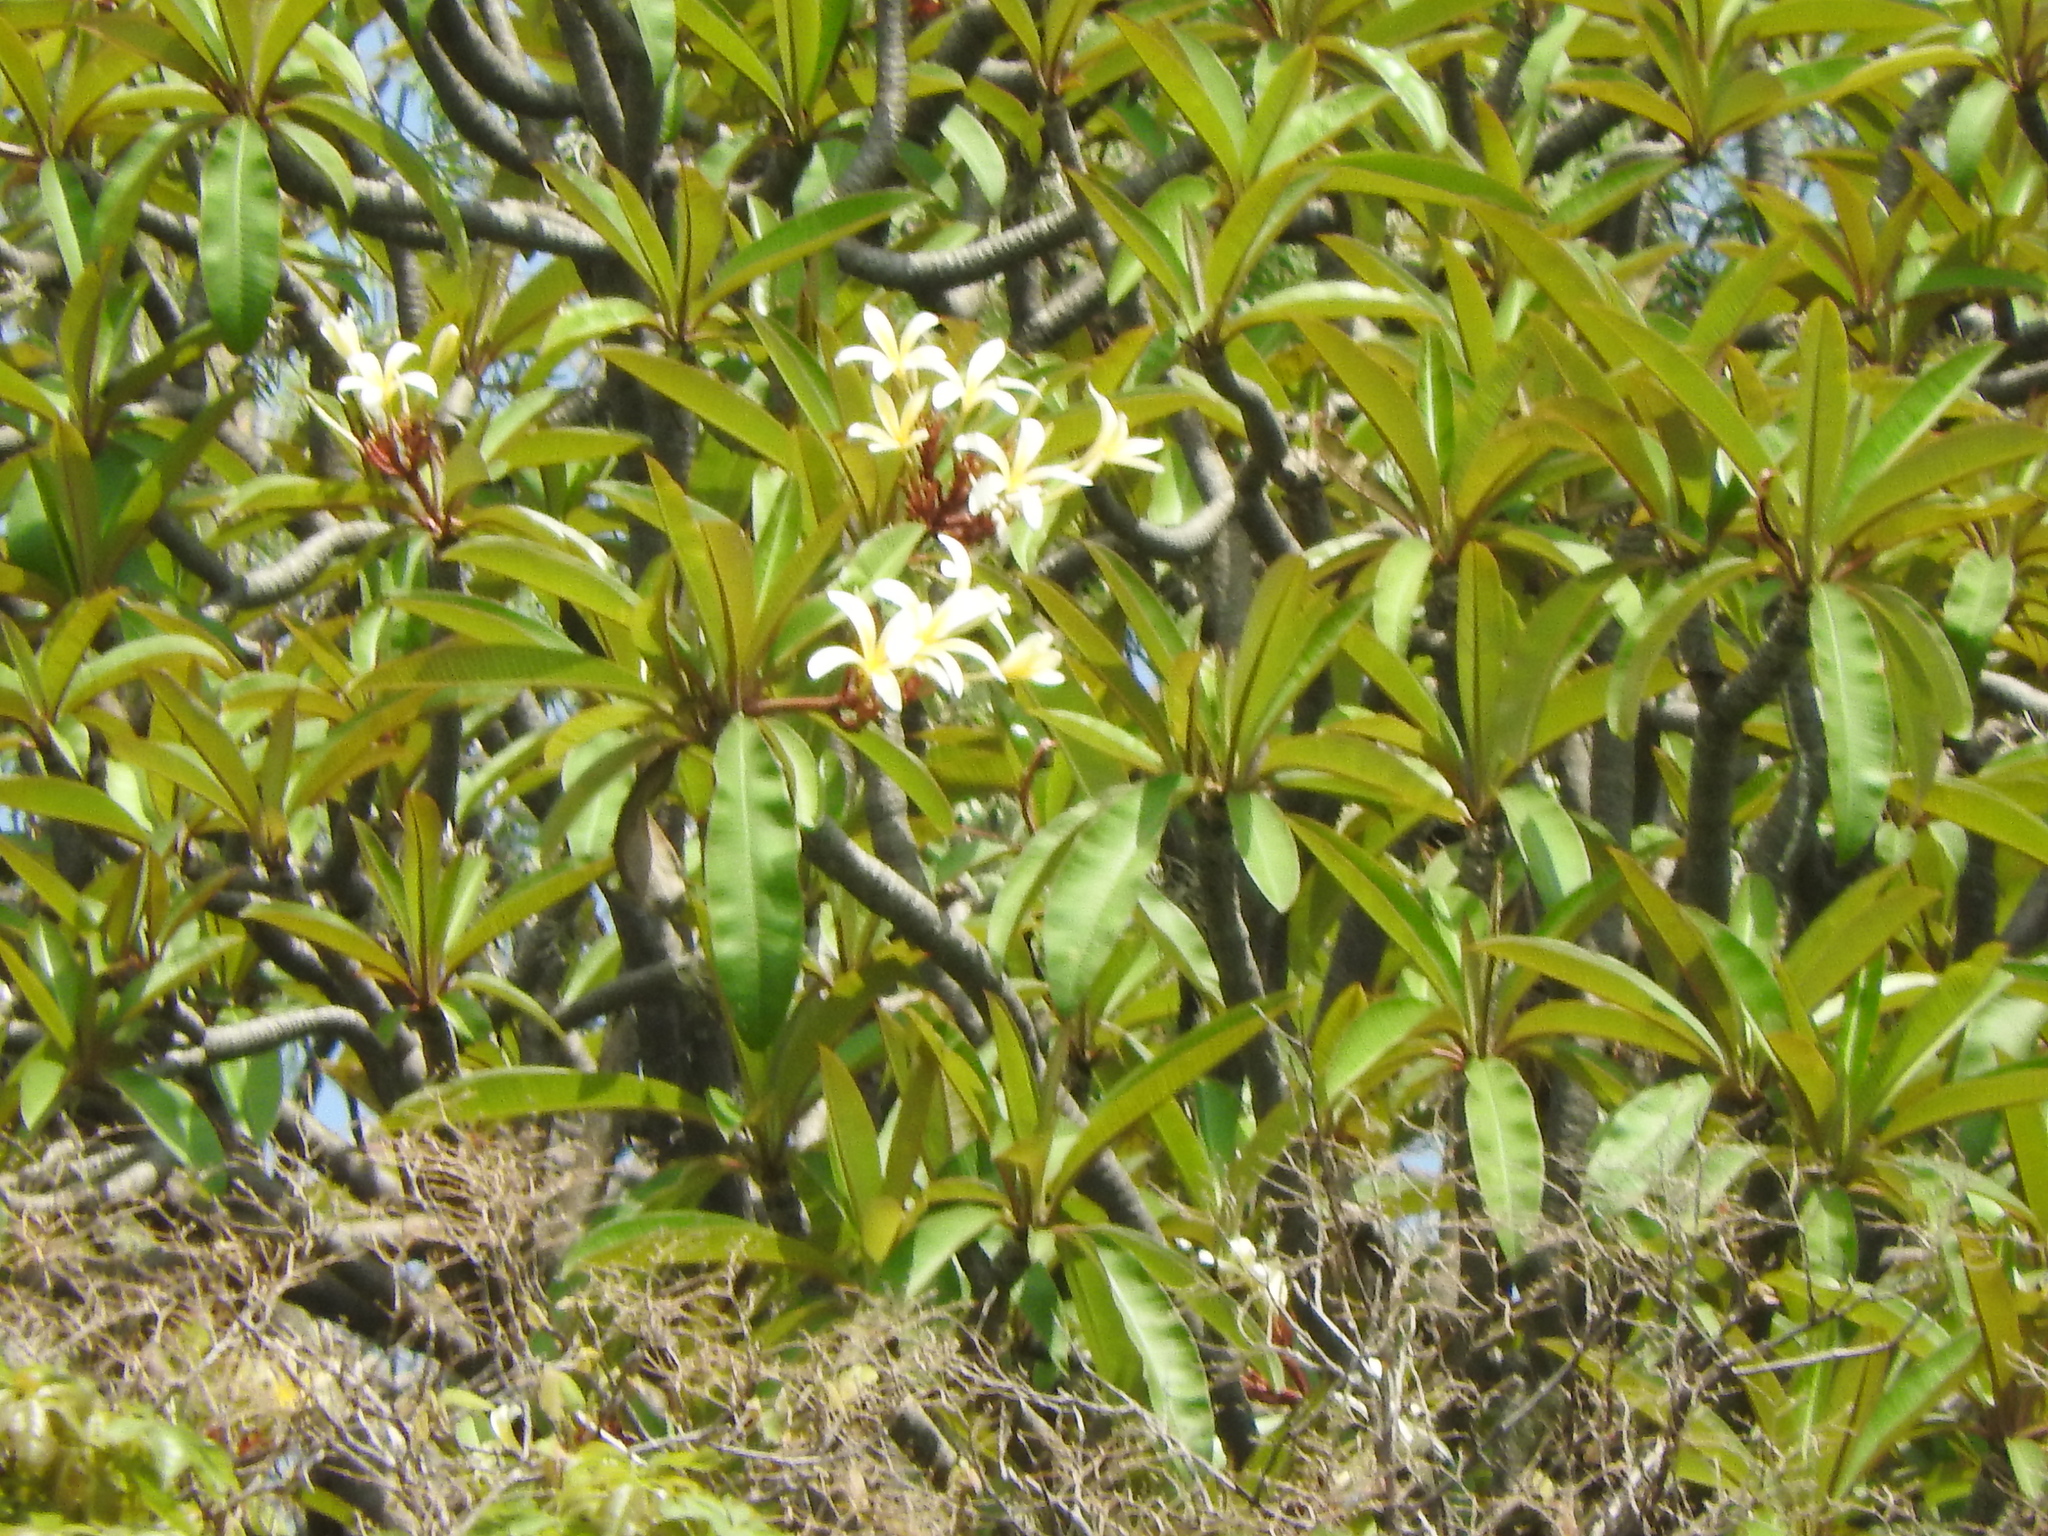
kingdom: Plantae
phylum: Tracheophyta
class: Magnoliopsida
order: Gentianales
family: Apocynaceae
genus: Plumeria
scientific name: Plumeria rubra
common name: Pagoda-tree
